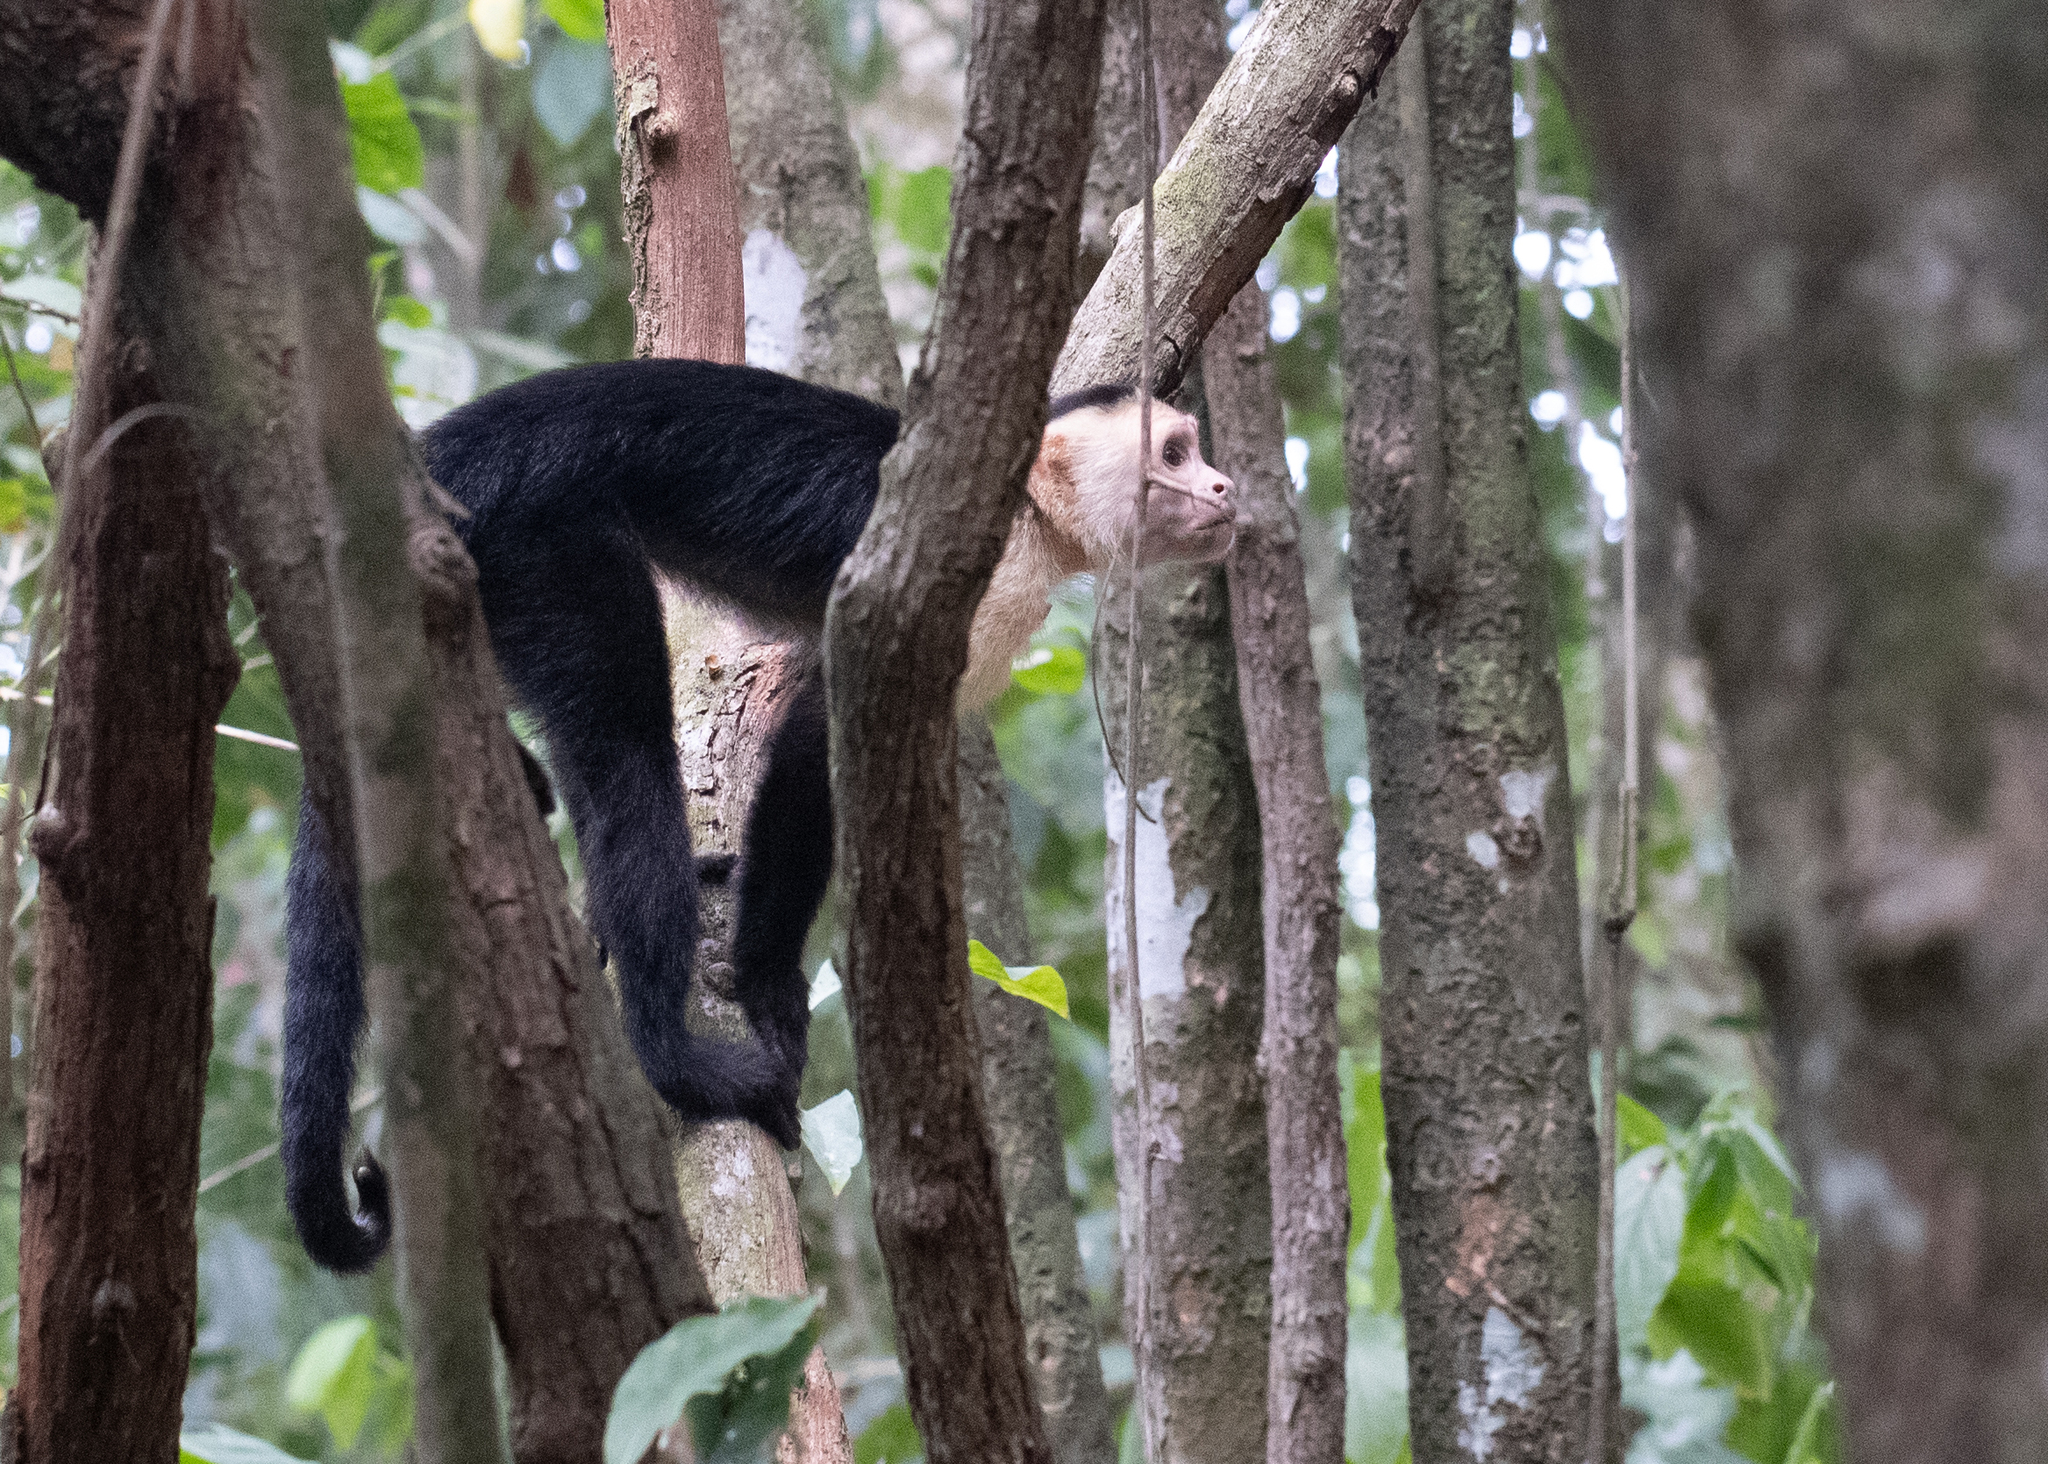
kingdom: Animalia
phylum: Chordata
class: Mammalia
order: Primates
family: Cebidae
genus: Cebus
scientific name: Cebus imitator
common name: Panamanian white-faced capuchin
